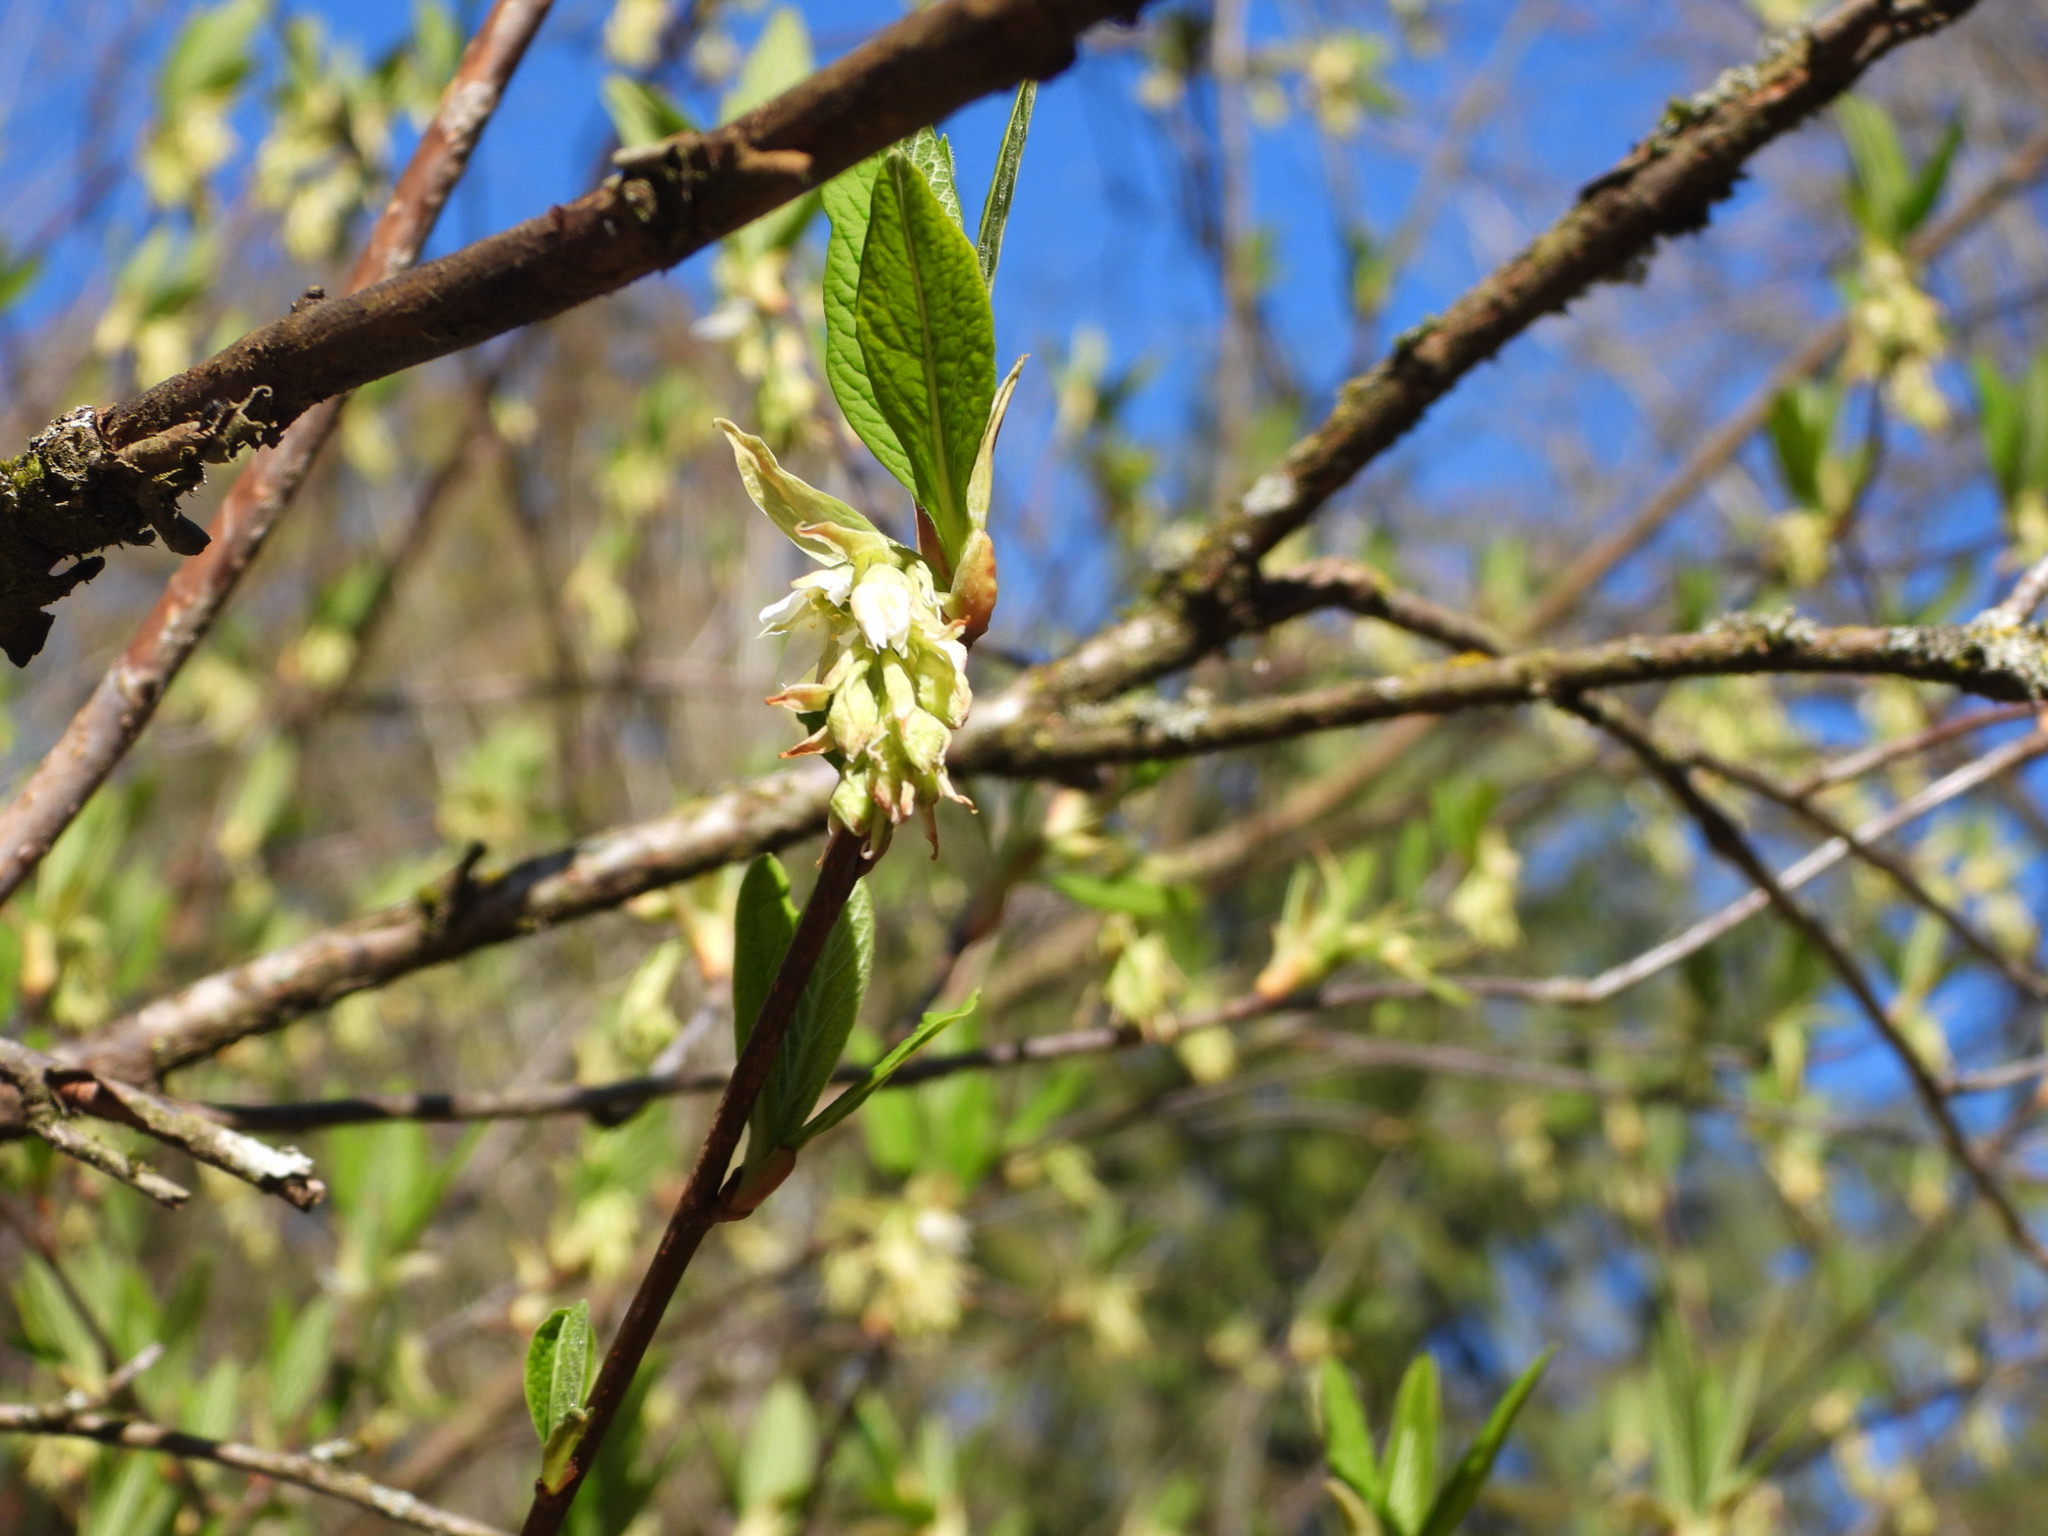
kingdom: Plantae
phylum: Tracheophyta
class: Magnoliopsida
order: Rosales
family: Rosaceae
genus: Oemleria
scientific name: Oemleria cerasiformis
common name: Osoberry
